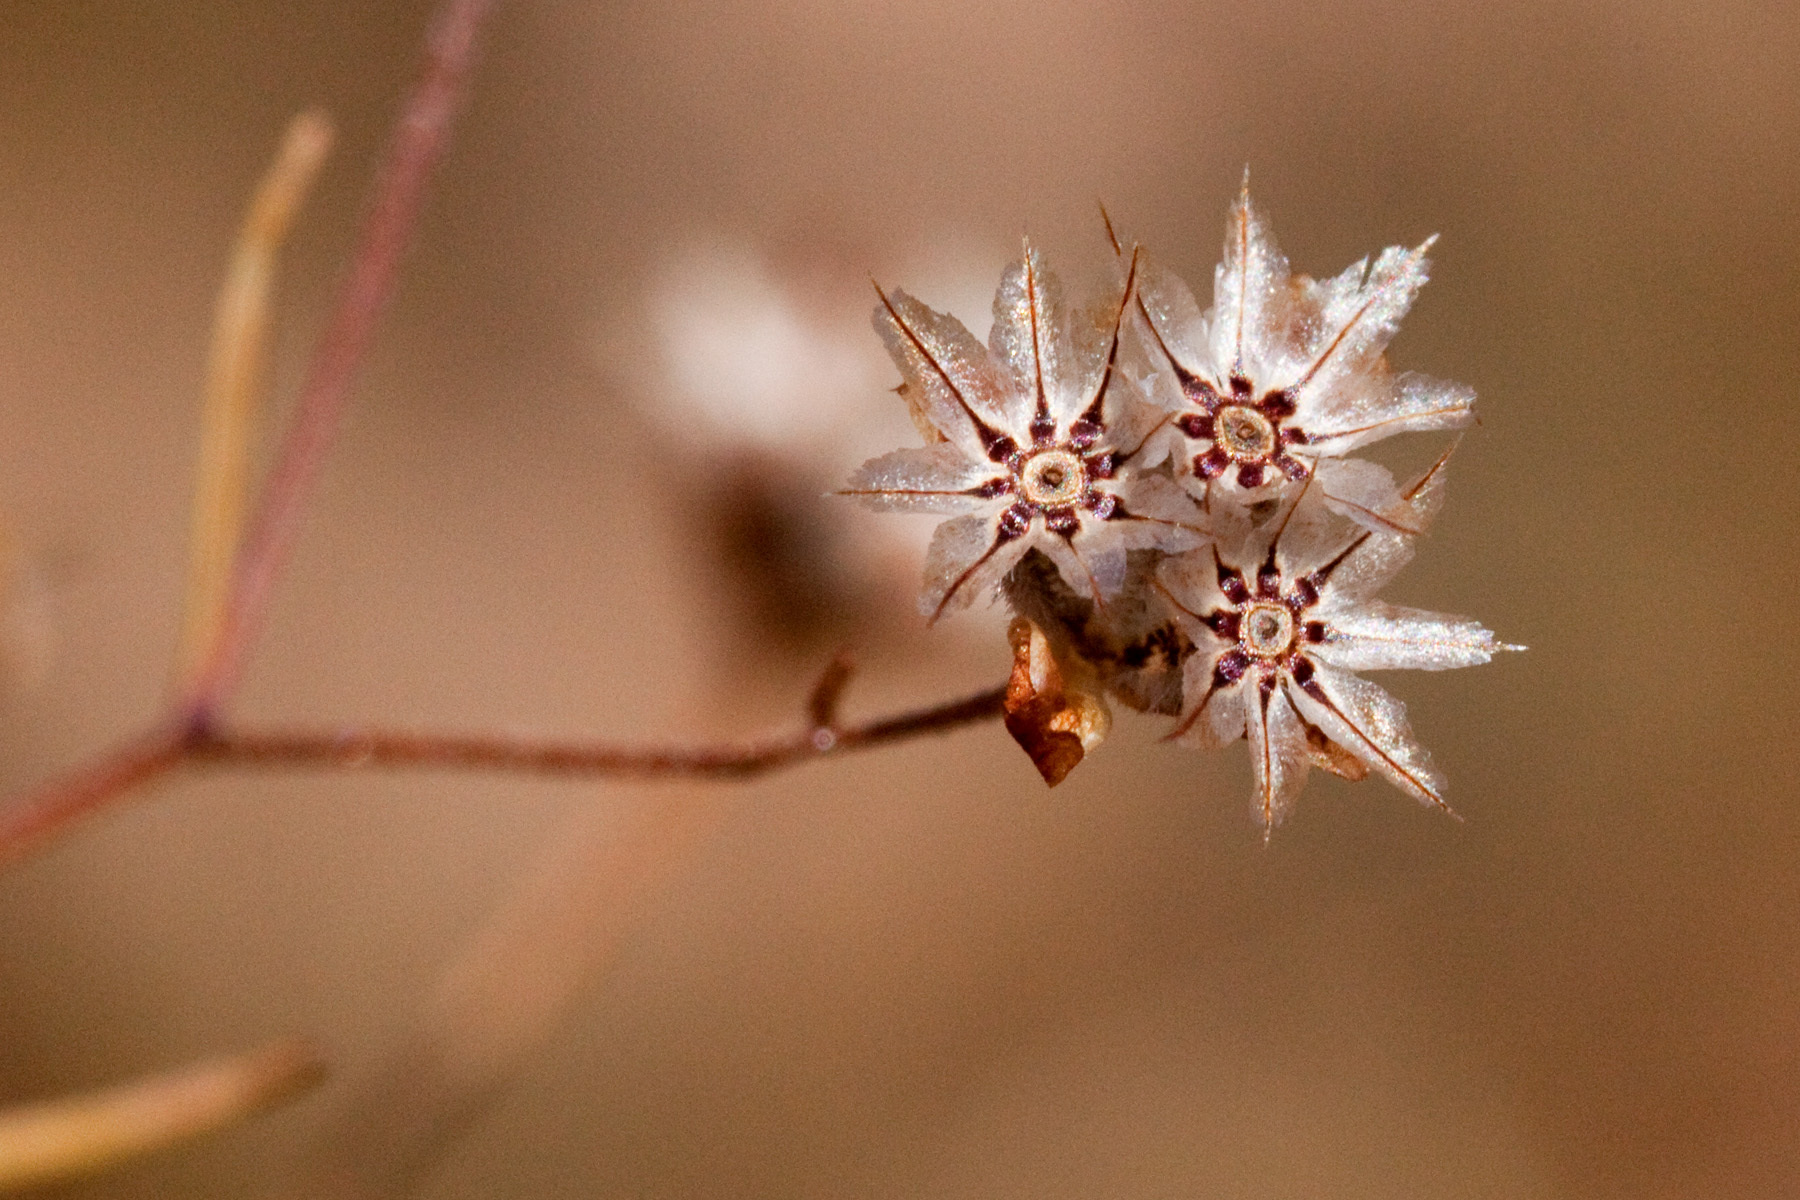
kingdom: Plantae
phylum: Tracheophyta
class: Magnoliopsida
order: Asterales
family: Asteraceae
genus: Schkuhria
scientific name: Schkuhria pinnata
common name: Dwarf marigold
